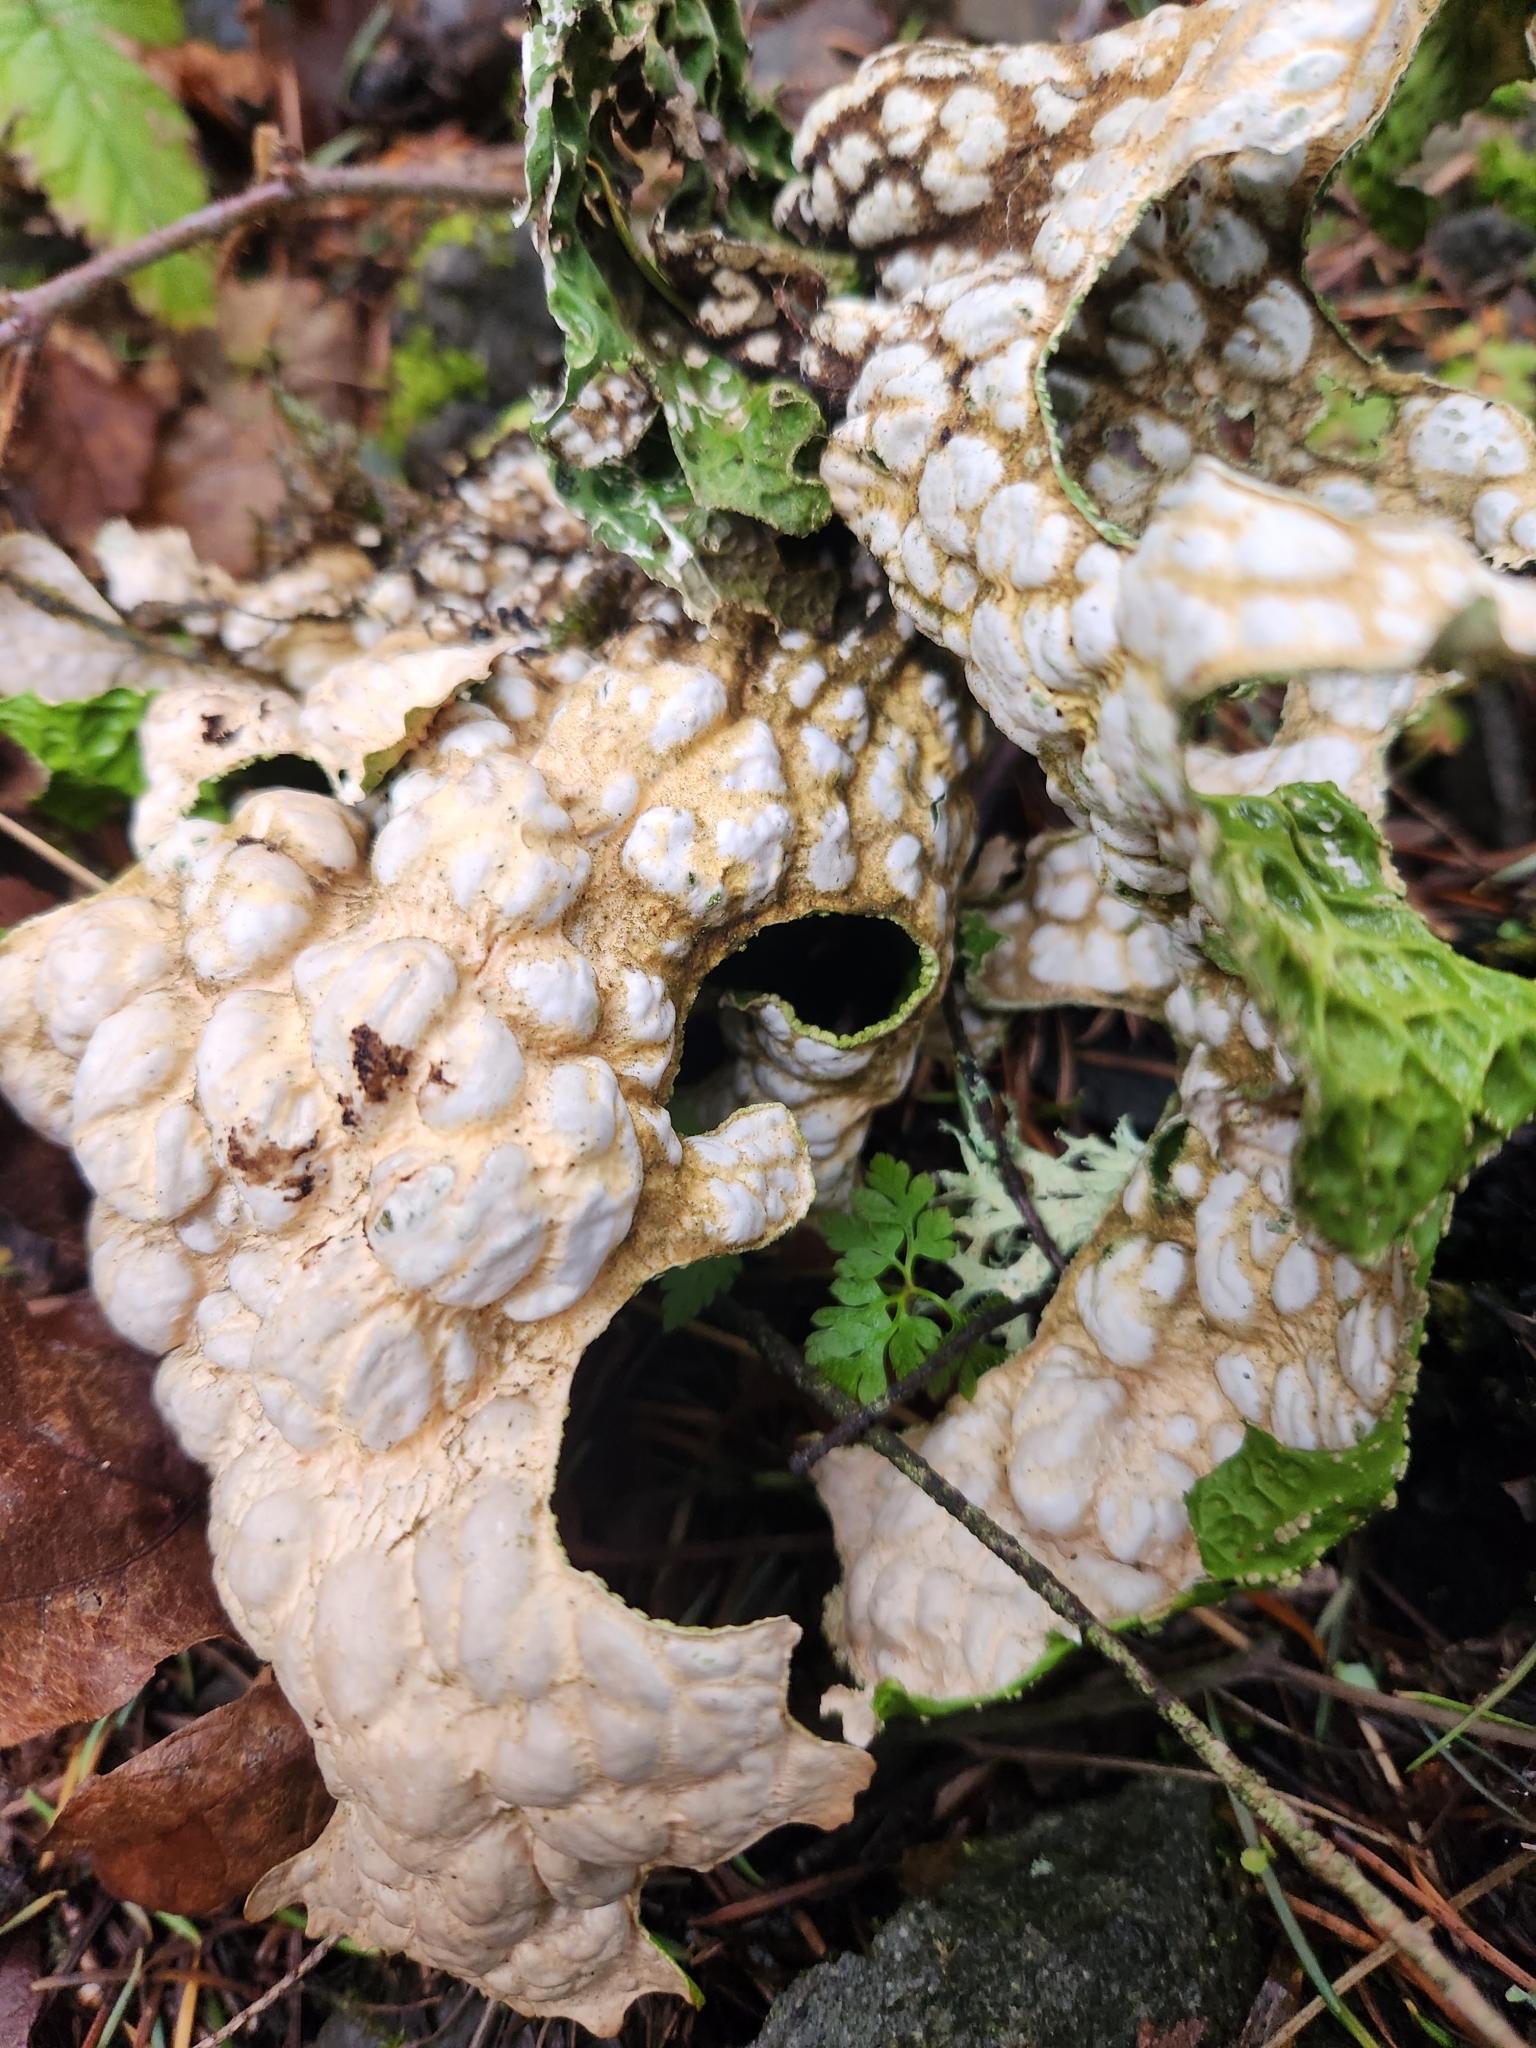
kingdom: Fungi
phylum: Ascomycota
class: Lecanoromycetes
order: Peltigerales
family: Lobariaceae
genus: Lobaria
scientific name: Lobaria pulmonaria
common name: Lungwort
